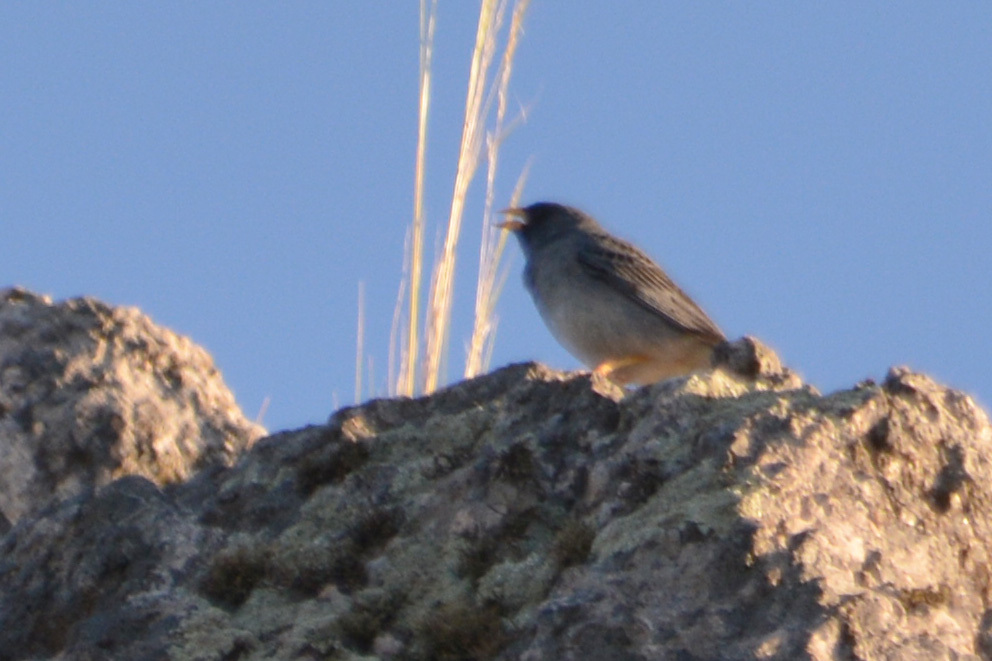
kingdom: Animalia
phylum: Chordata
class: Aves
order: Passeriformes
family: Thraupidae
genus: Porphyrospiza
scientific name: Porphyrospiza alaudina
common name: Band-tailed sierra finch
